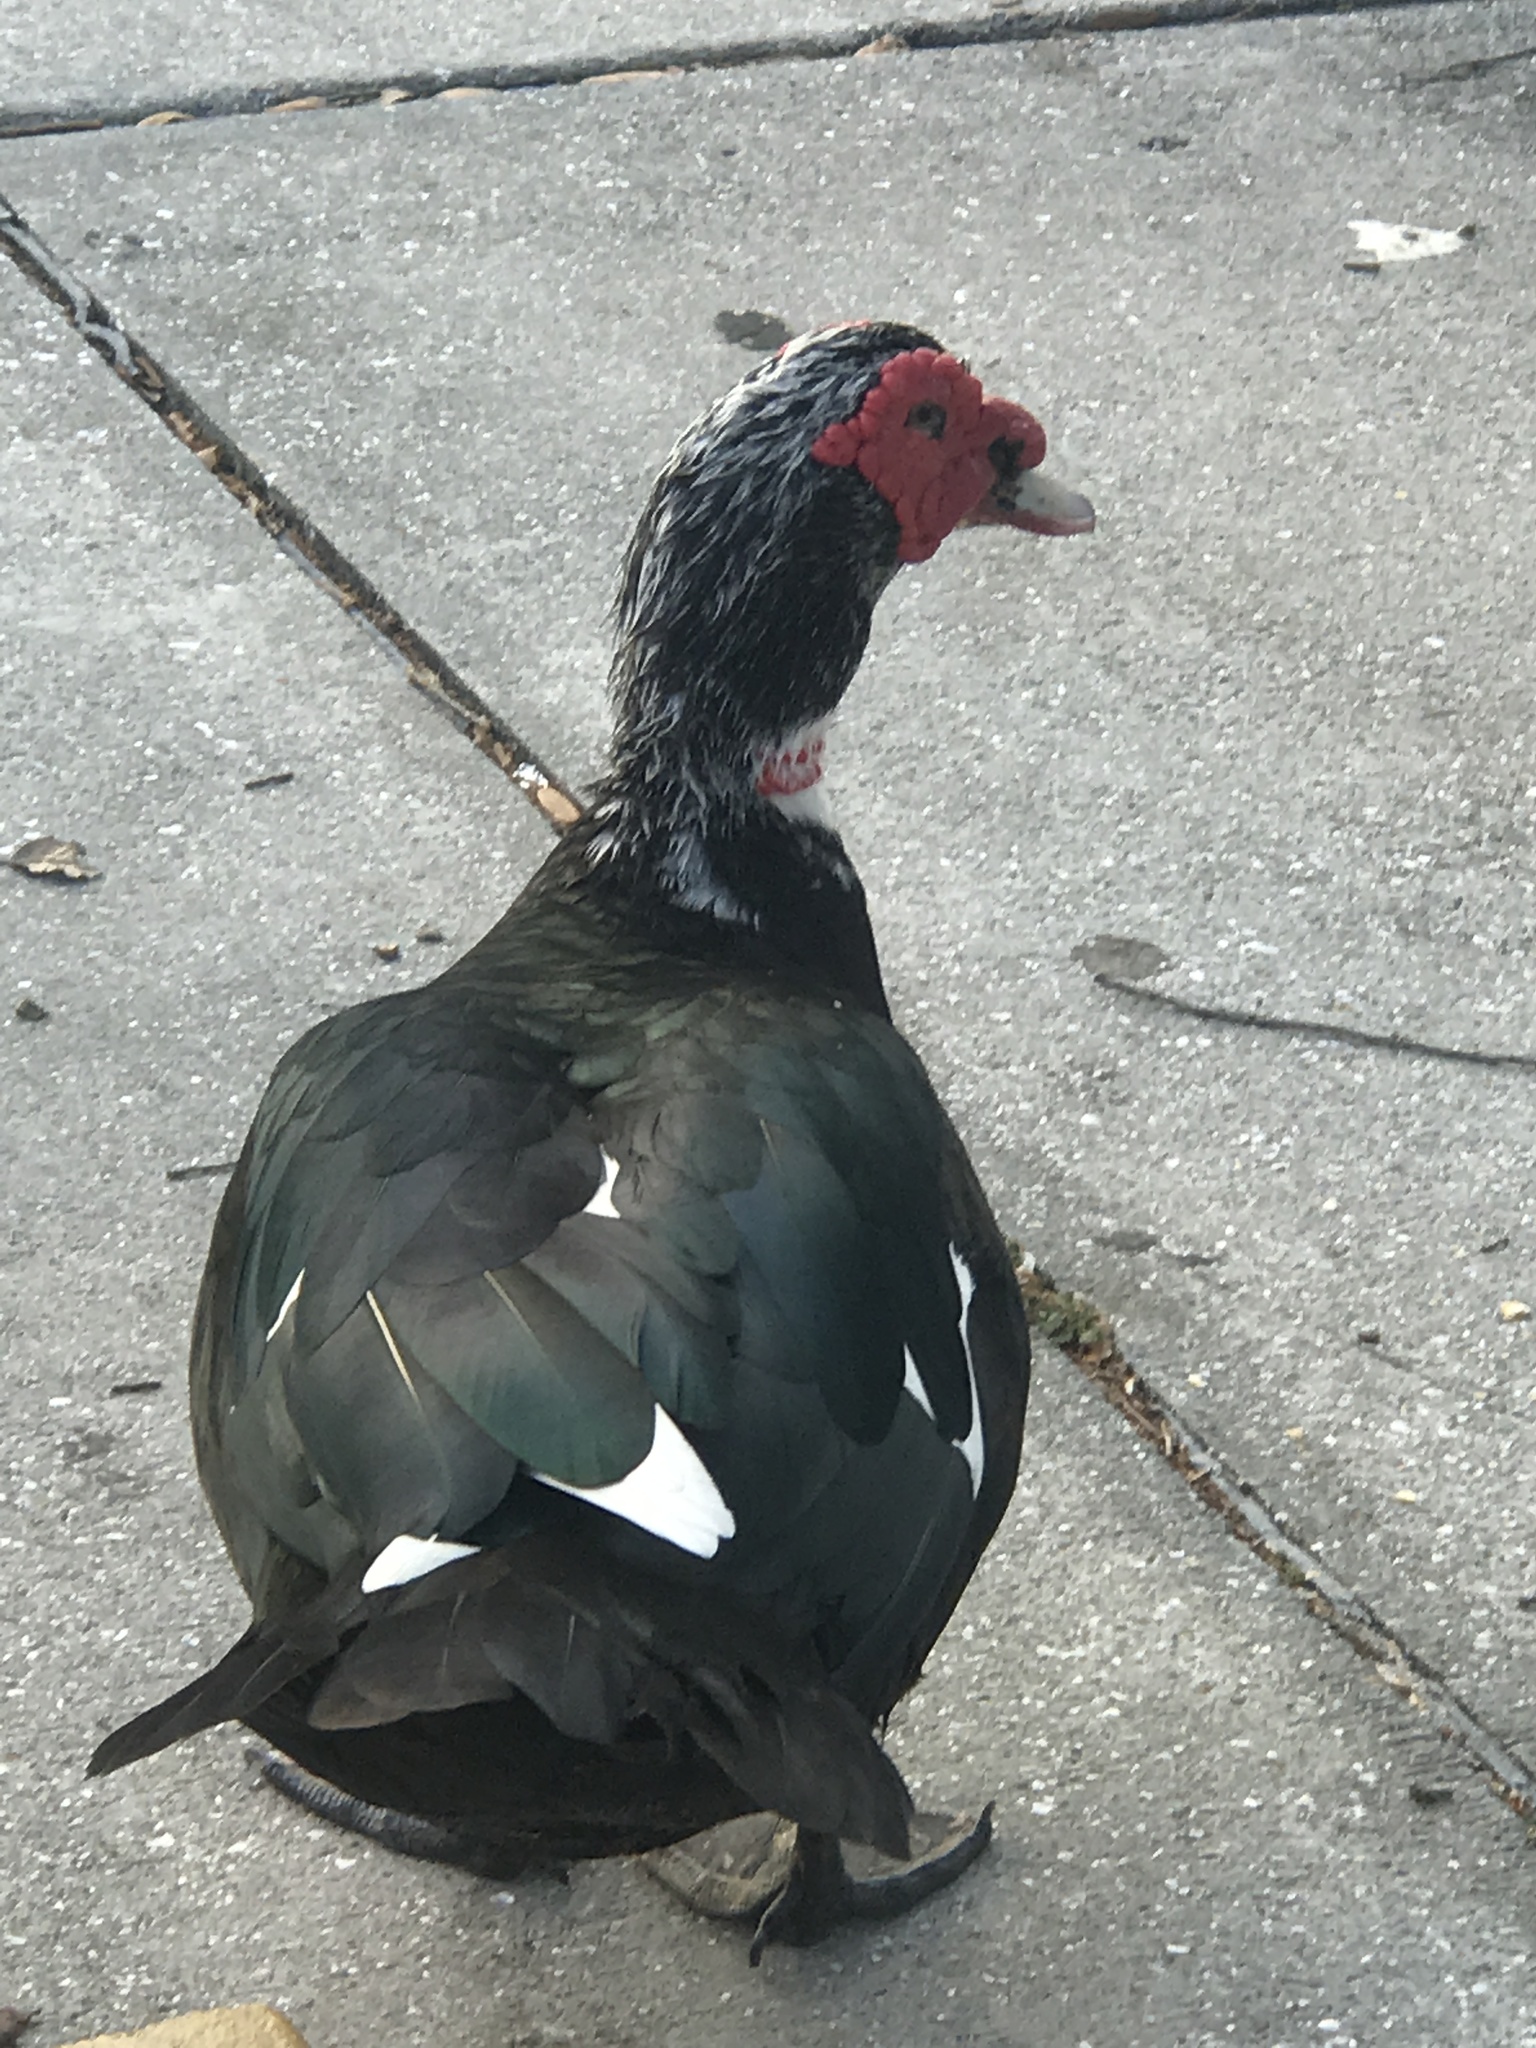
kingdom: Animalia
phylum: Chordata
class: Aves
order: Anseriformes
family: Anatidae
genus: Cairina
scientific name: Cairina moschata
